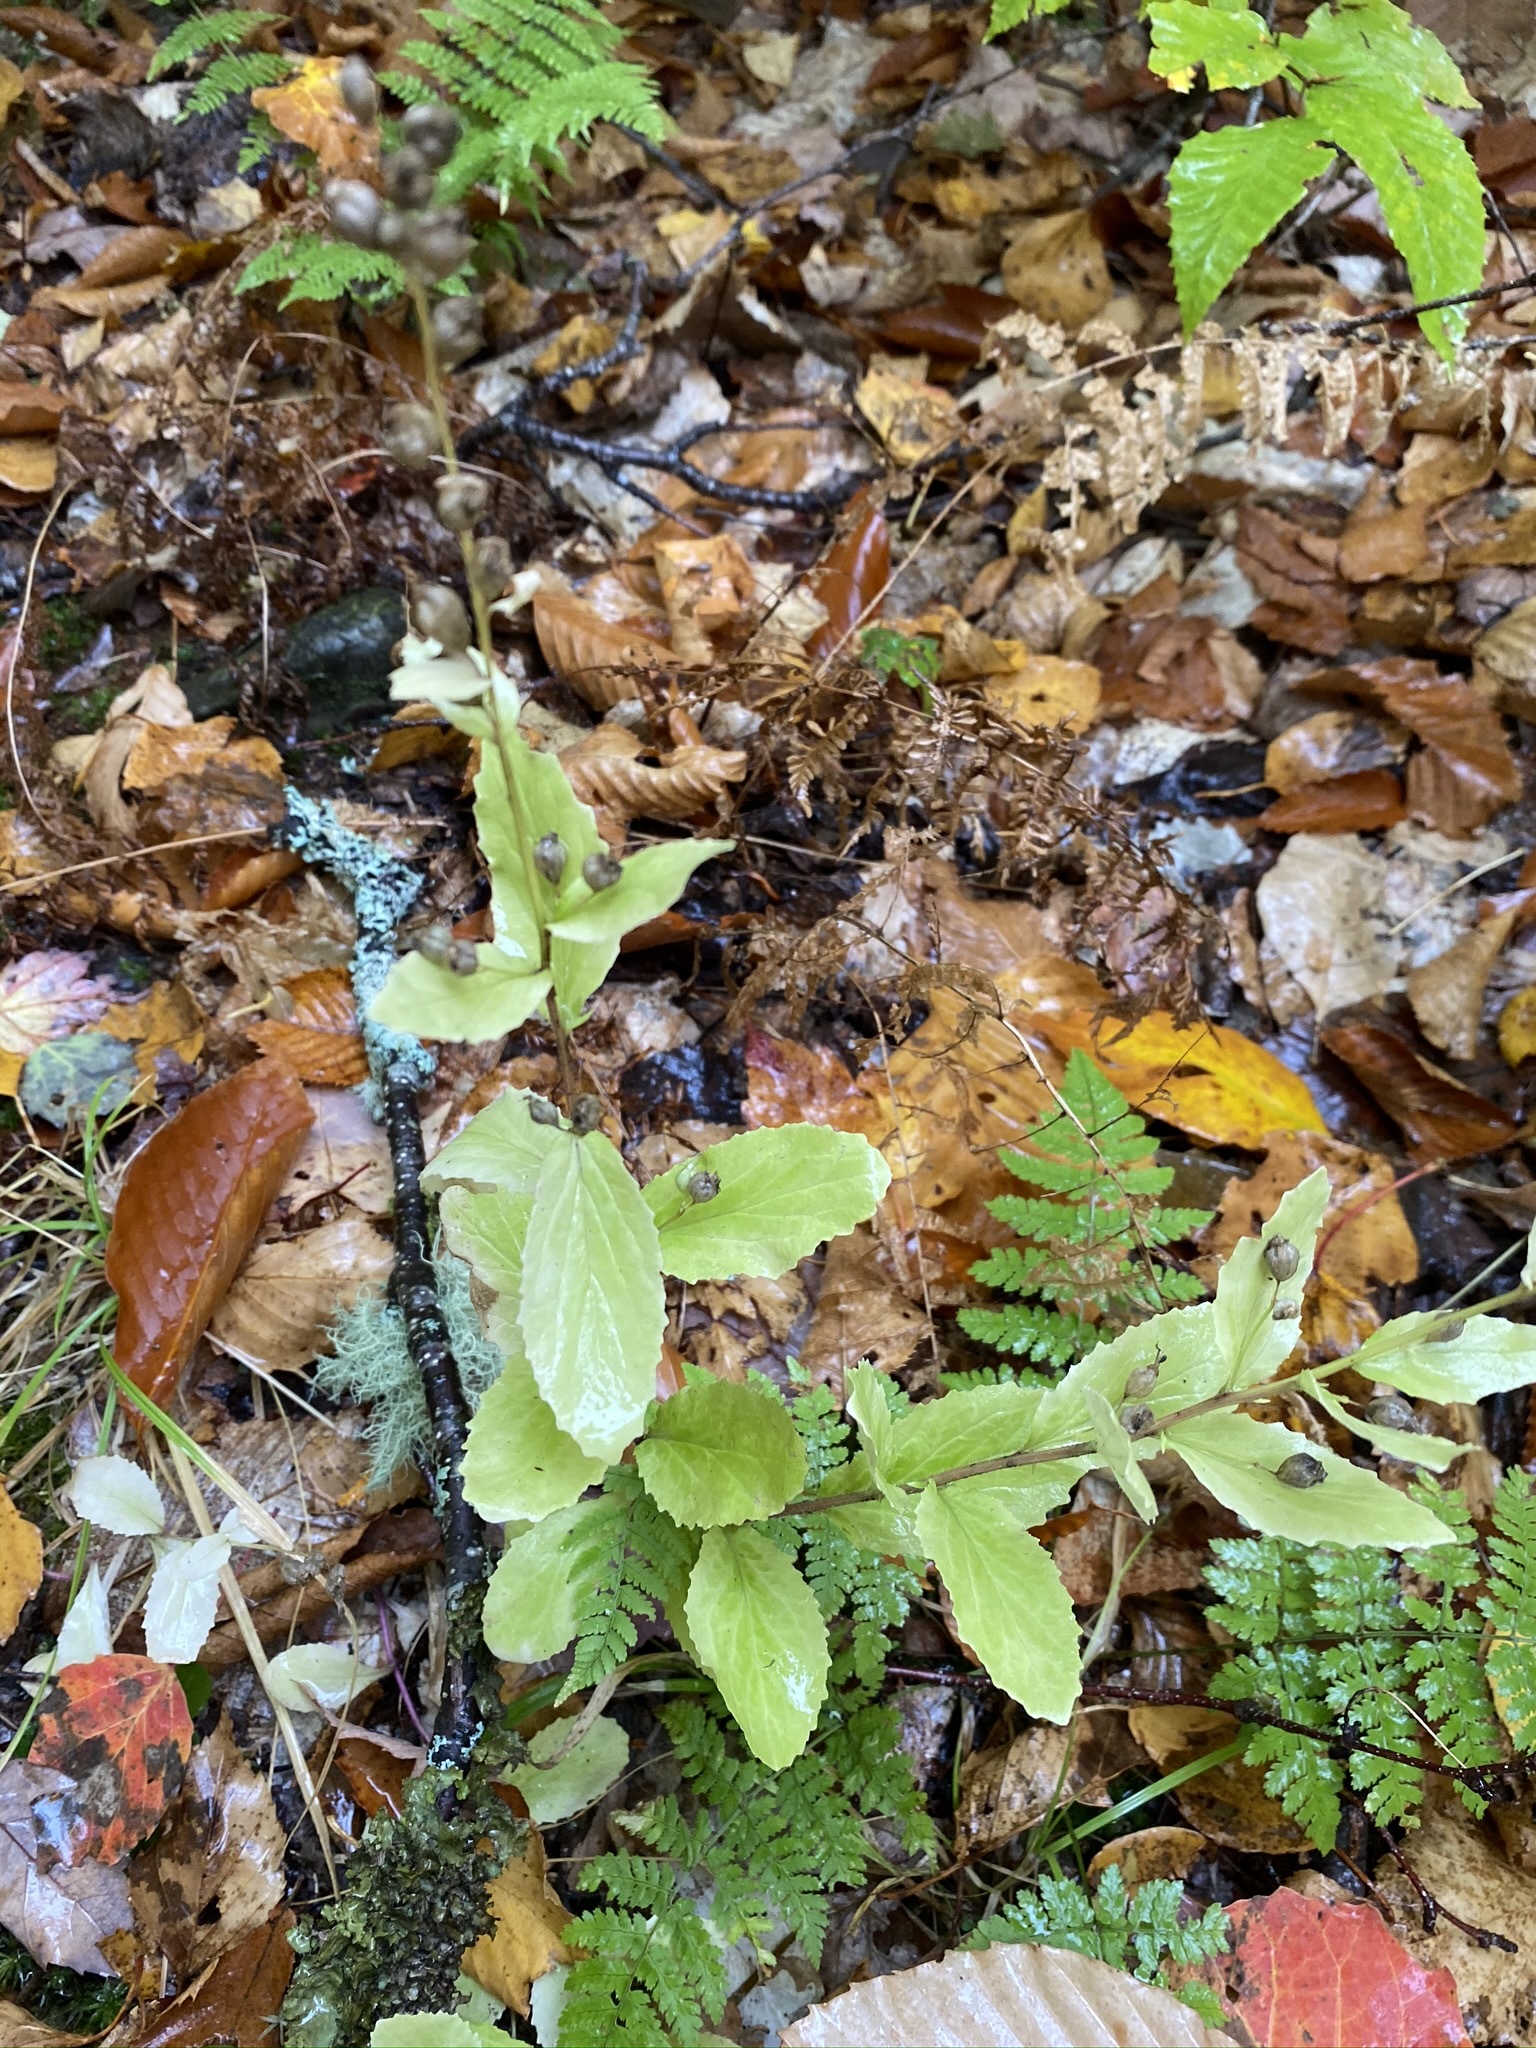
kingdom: Plantae
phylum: Tracheophyta
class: Magnoliopsida
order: Asterales
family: Campanulaceae
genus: Lobelia
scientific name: Lobelia inflata
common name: Indian tobacco
